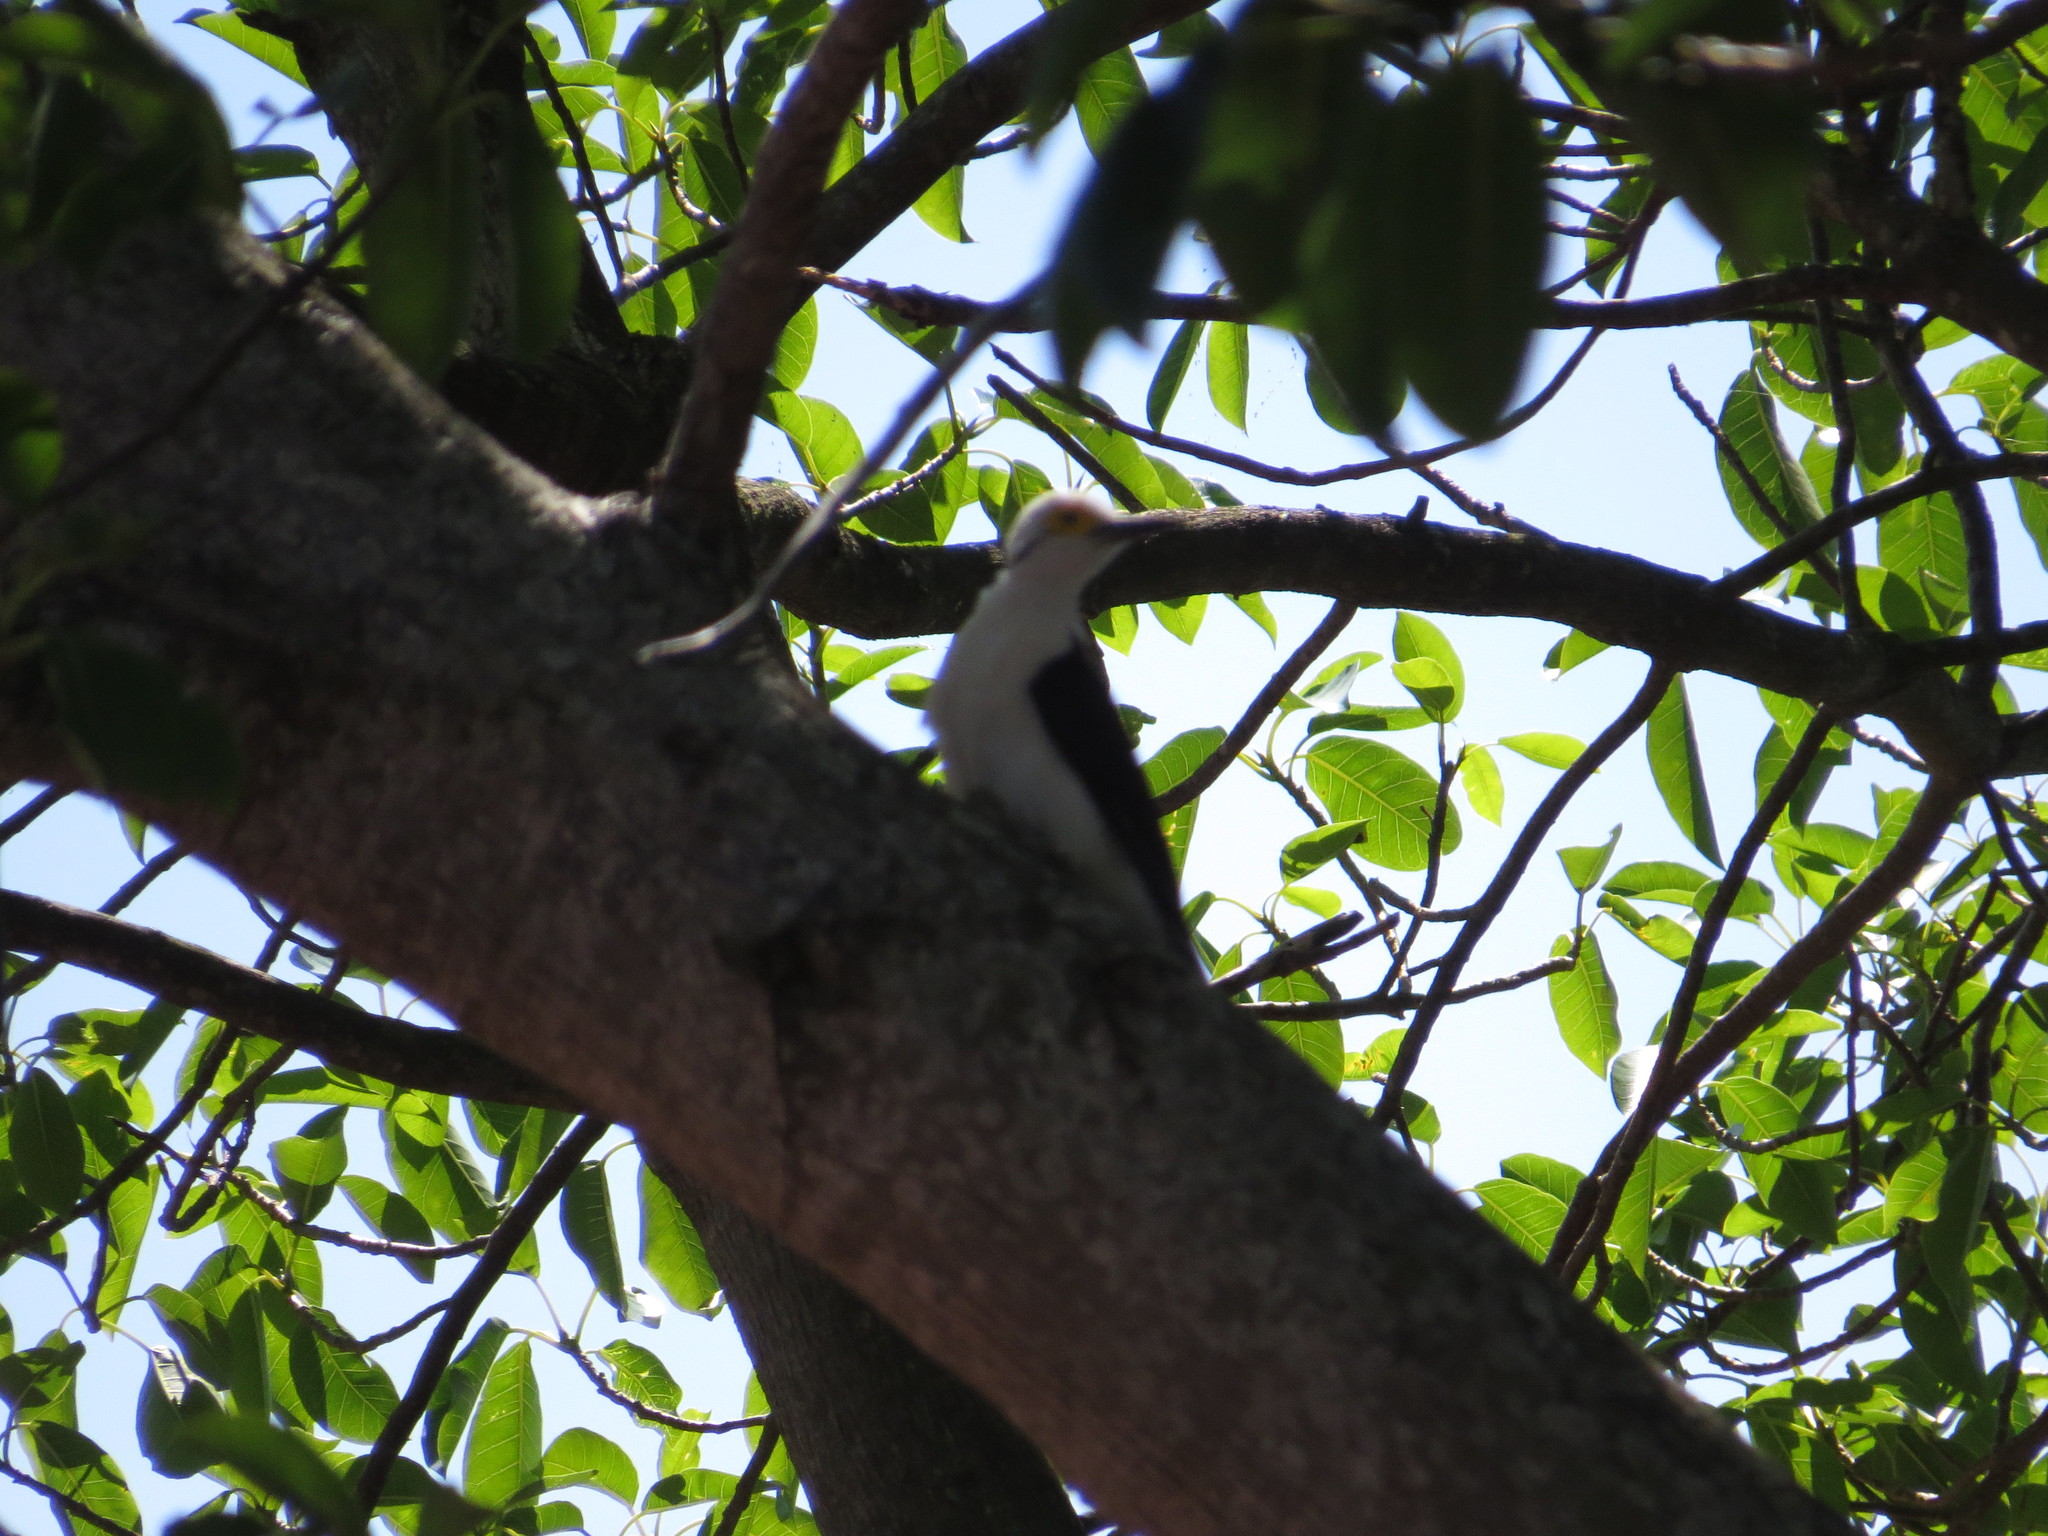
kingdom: Animalia
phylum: Chordata
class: Aves
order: Piciformes
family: Picidae
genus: Melanerpes
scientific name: Melanerpes candidus
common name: White woodpecker
